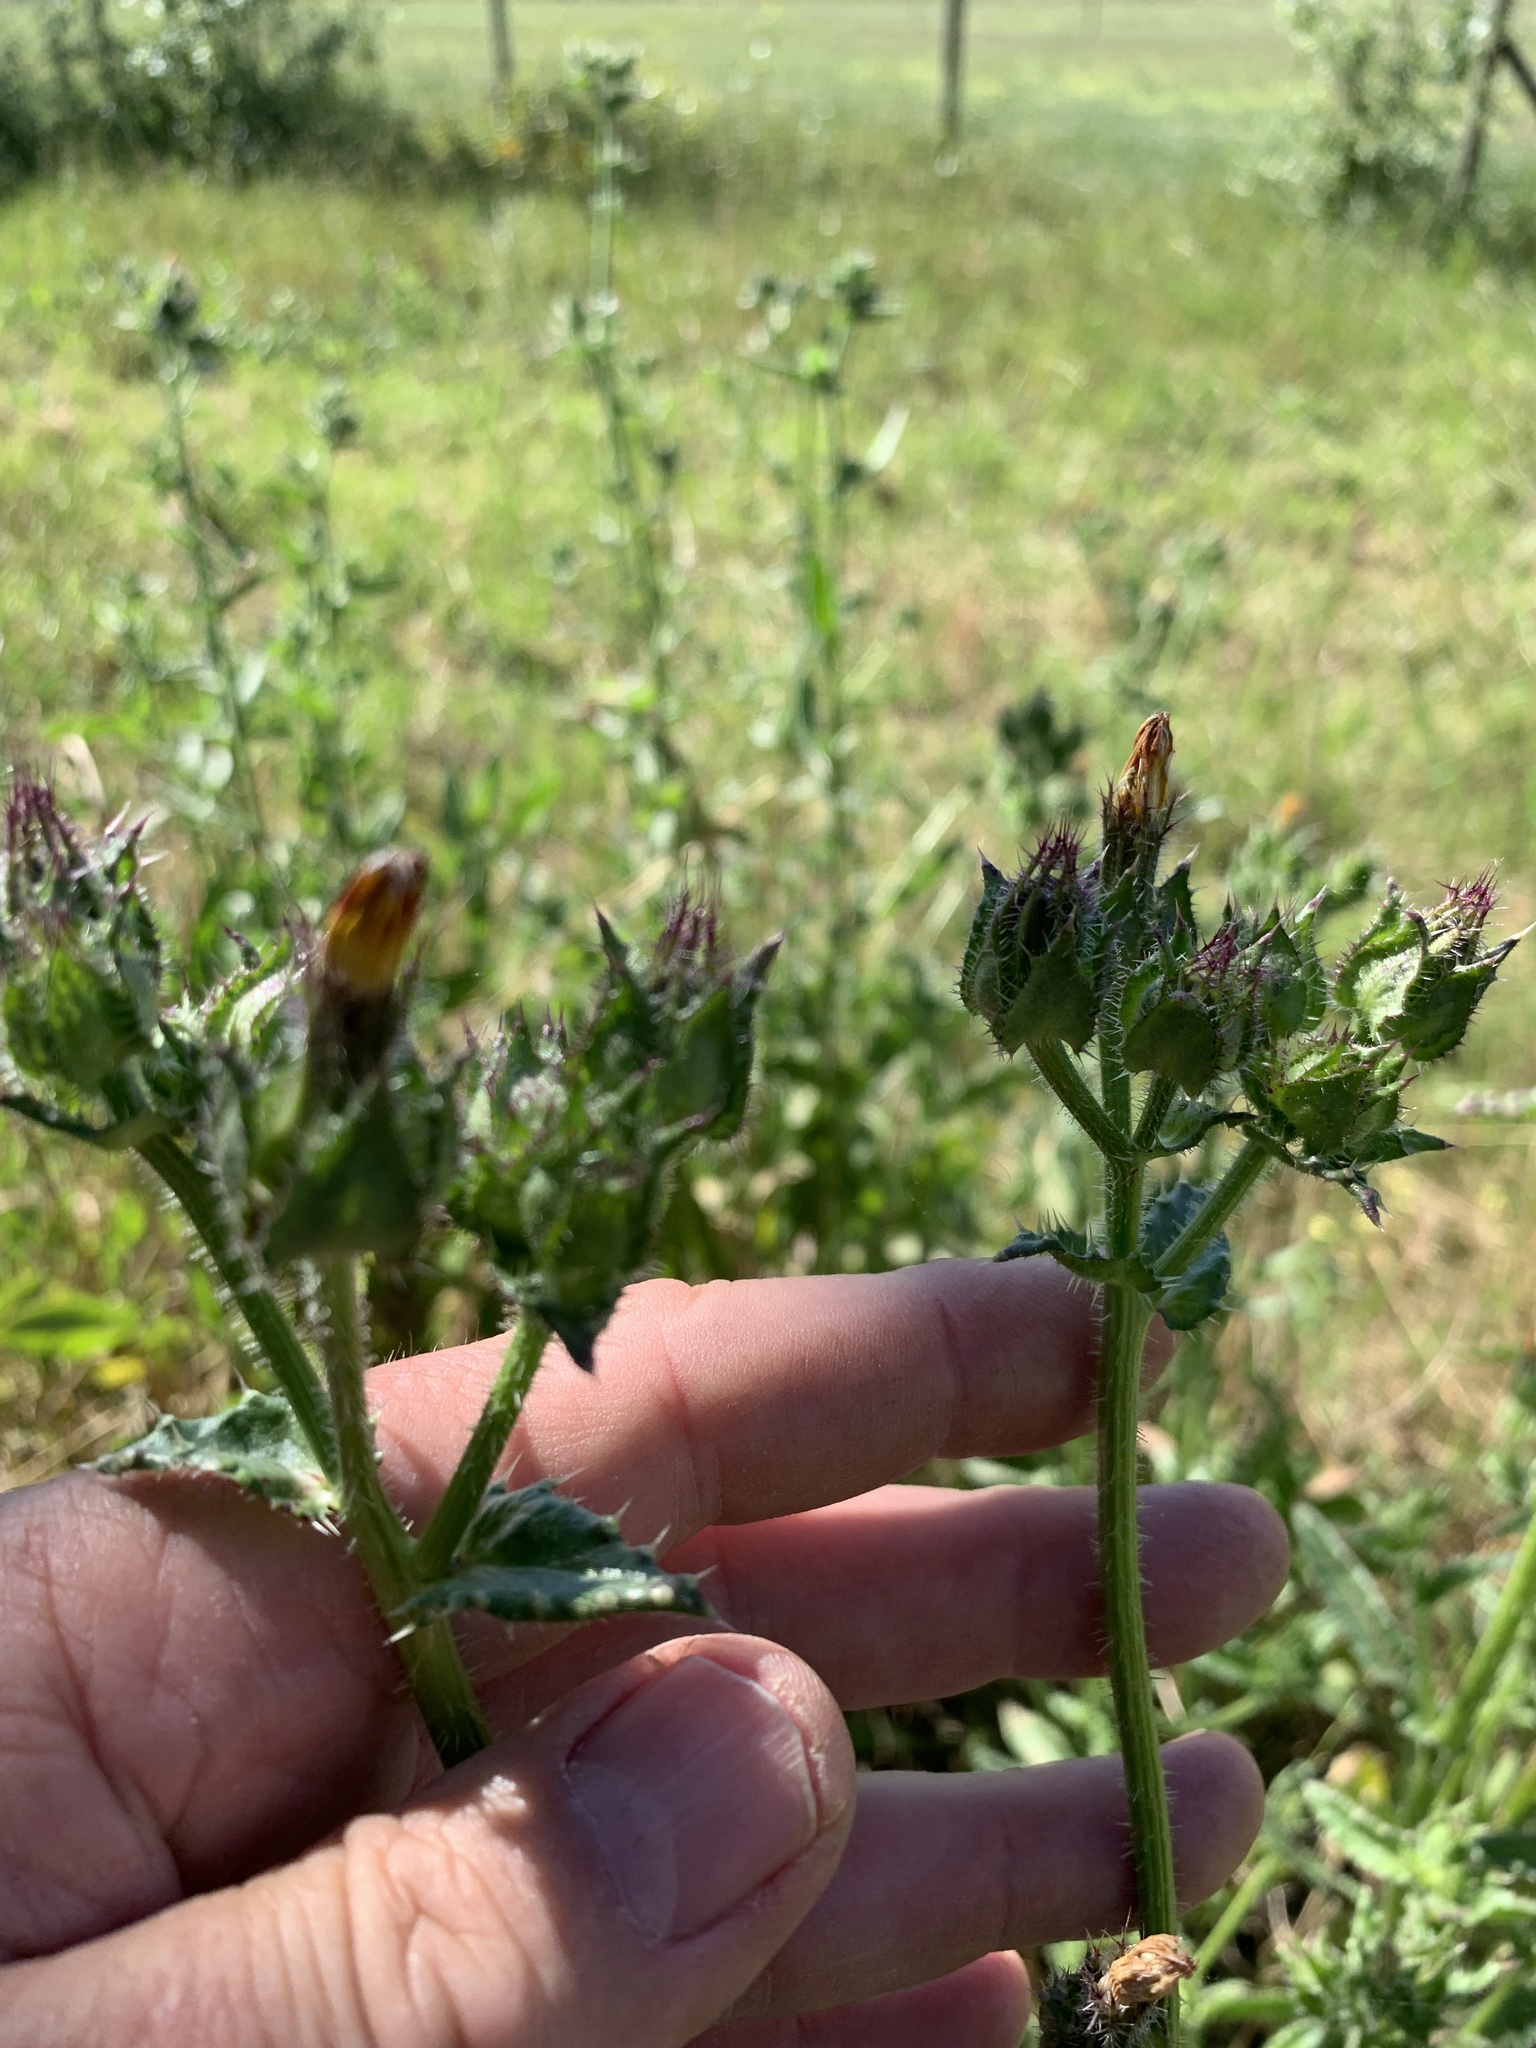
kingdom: Plantae
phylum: Tracheophyta
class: Magnoliopsida
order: Asterales
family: Asteraceae
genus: Helminthotheca
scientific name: Helminthotheca echioides
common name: Ox-tongue
